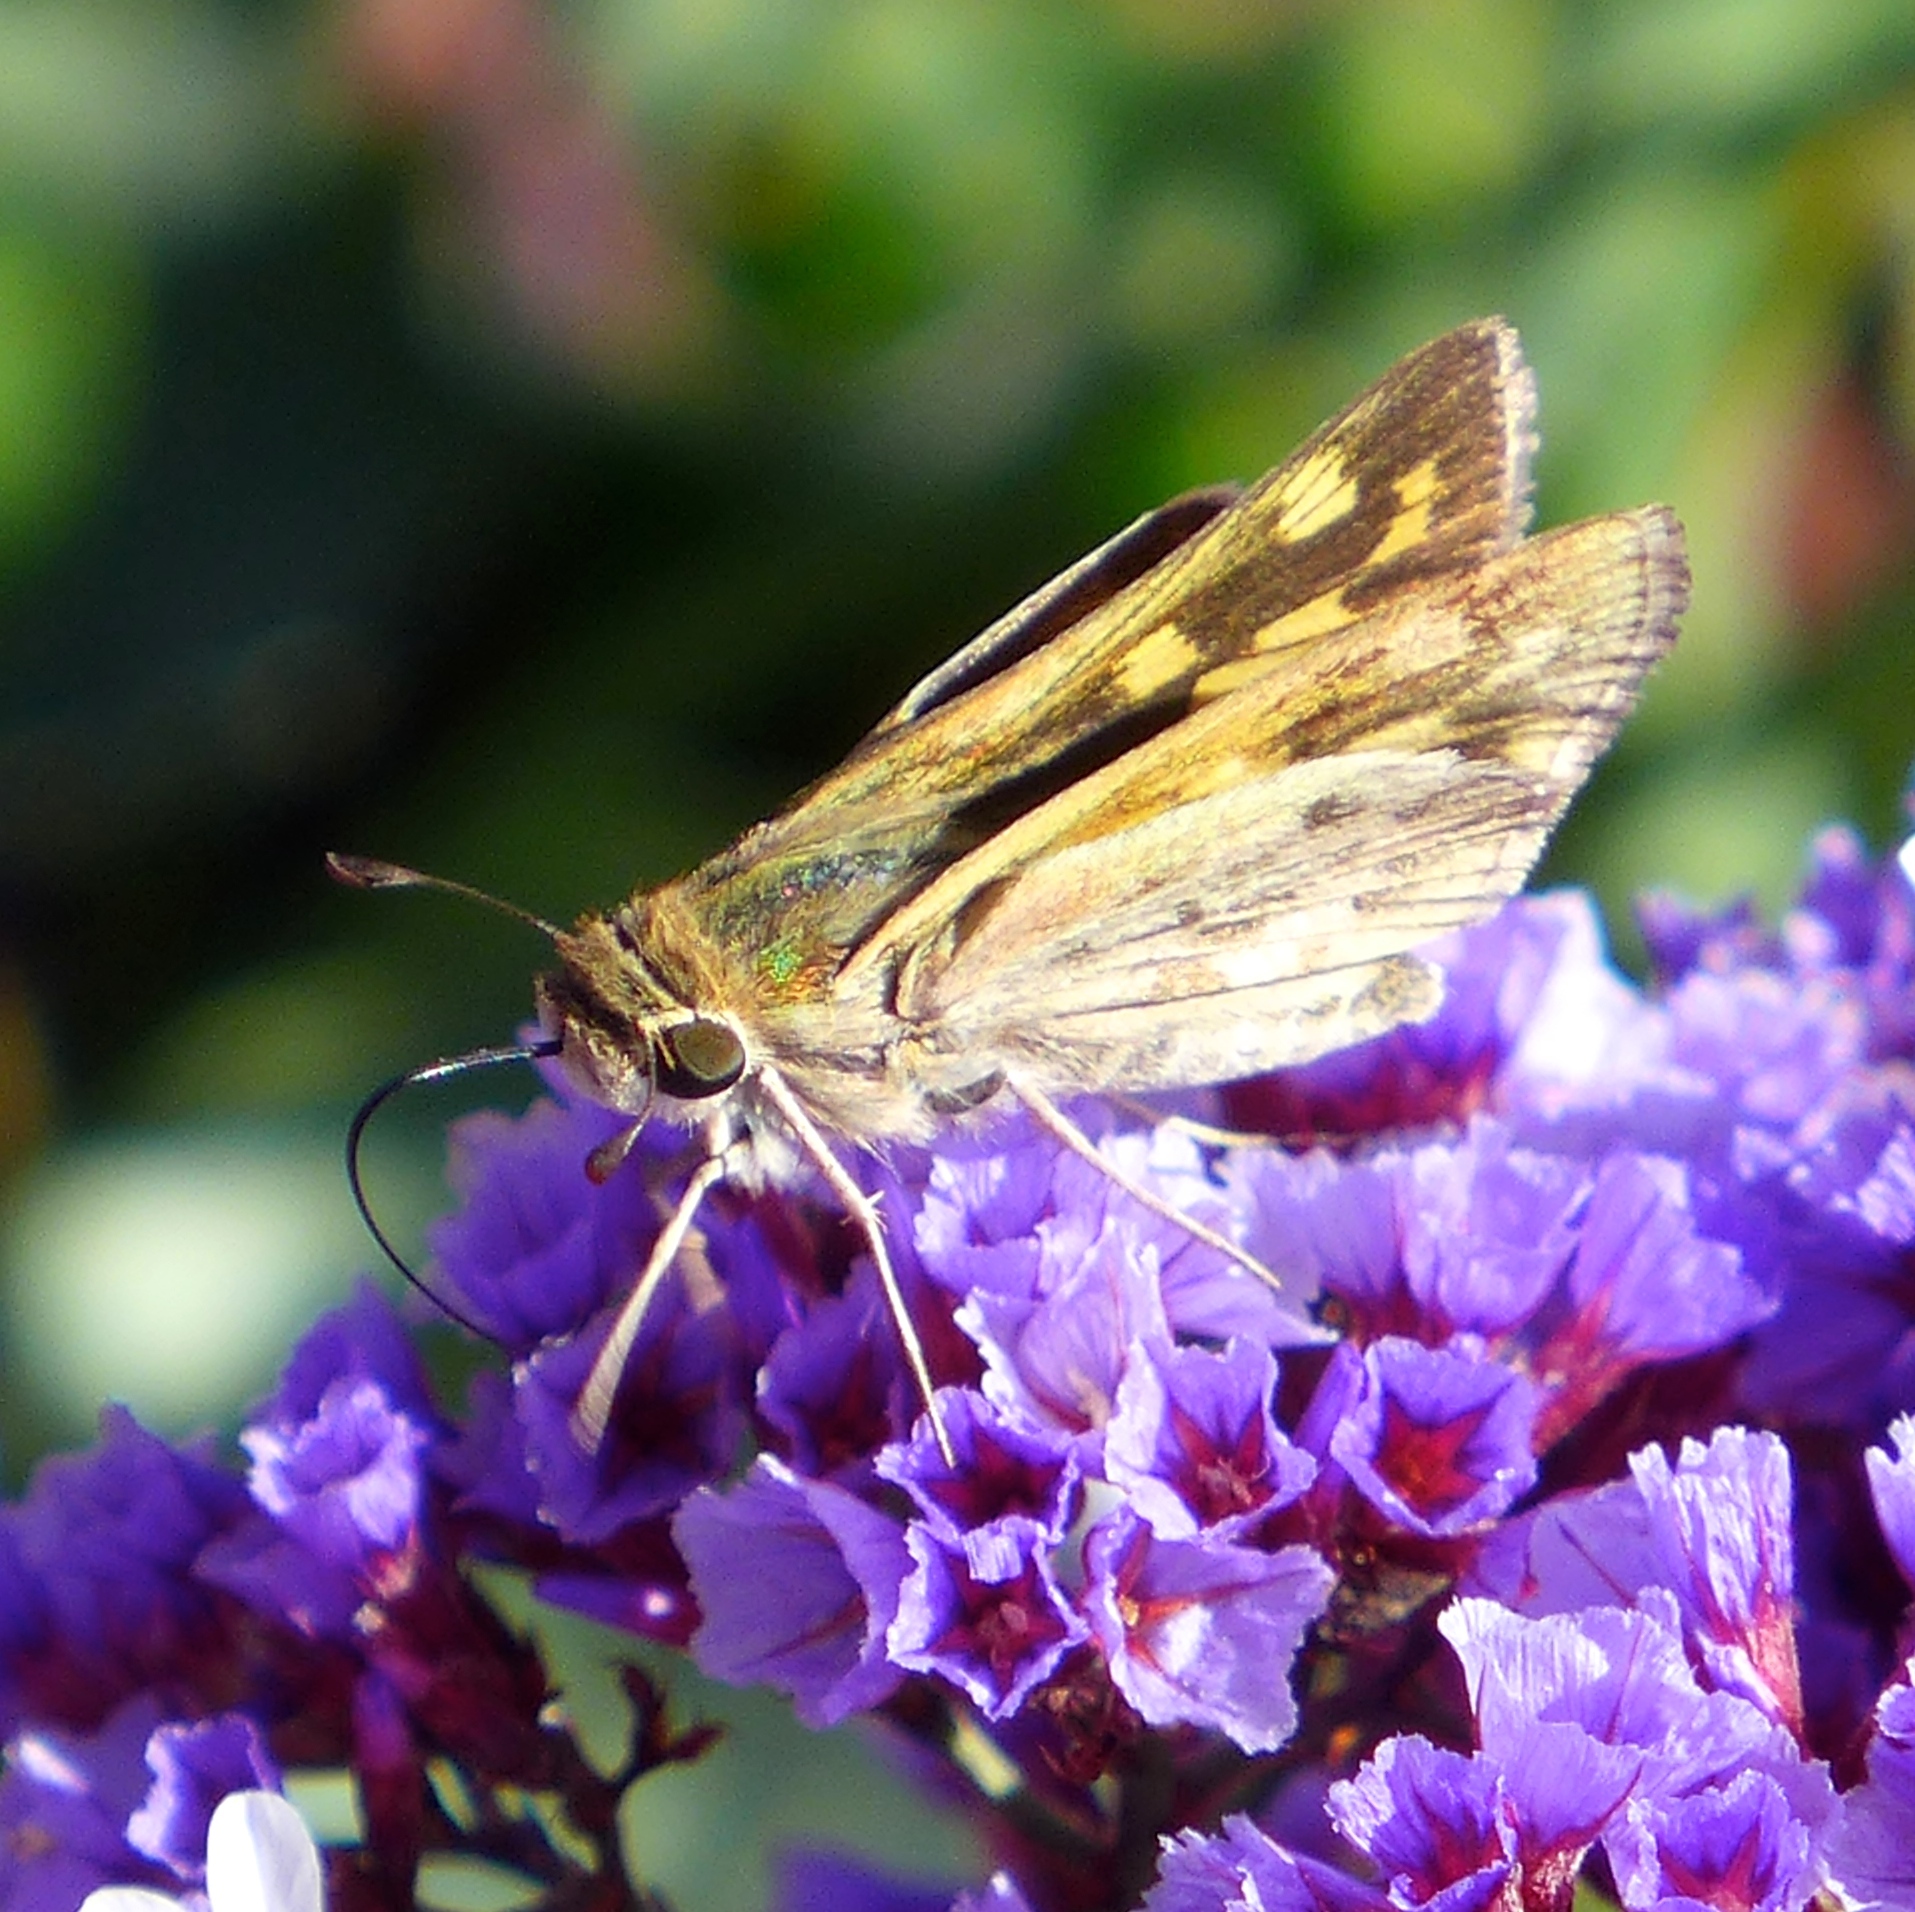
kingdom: Animalia
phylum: Arthropoda
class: Insecta
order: Lepidoptera
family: Hesperiidae
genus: Hylephila
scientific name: Hylephila phyleus
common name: Fiery skipper
